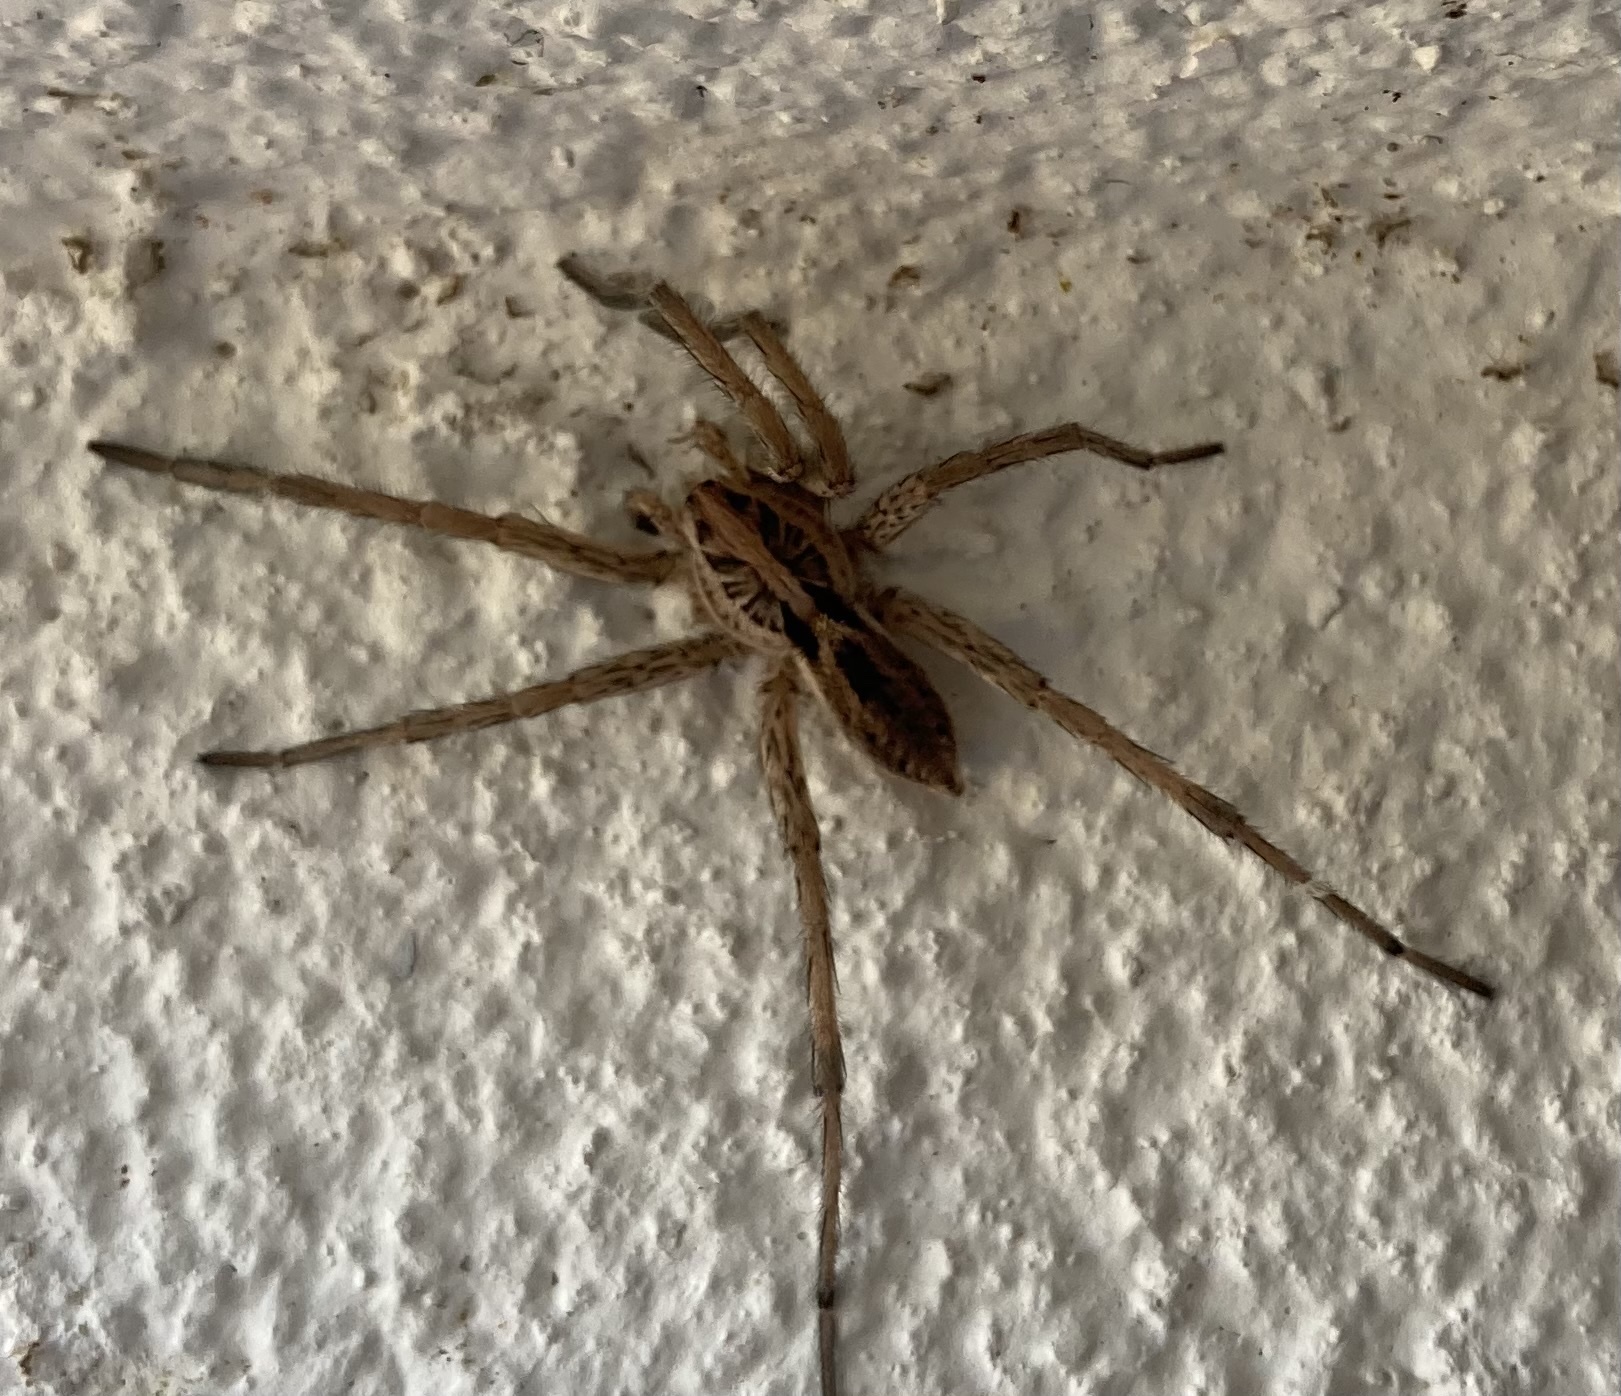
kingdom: Animalia
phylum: Arthropoda
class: Arachnida
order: Araneae
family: Lycosidae
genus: Hogna
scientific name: Hogna radiata
